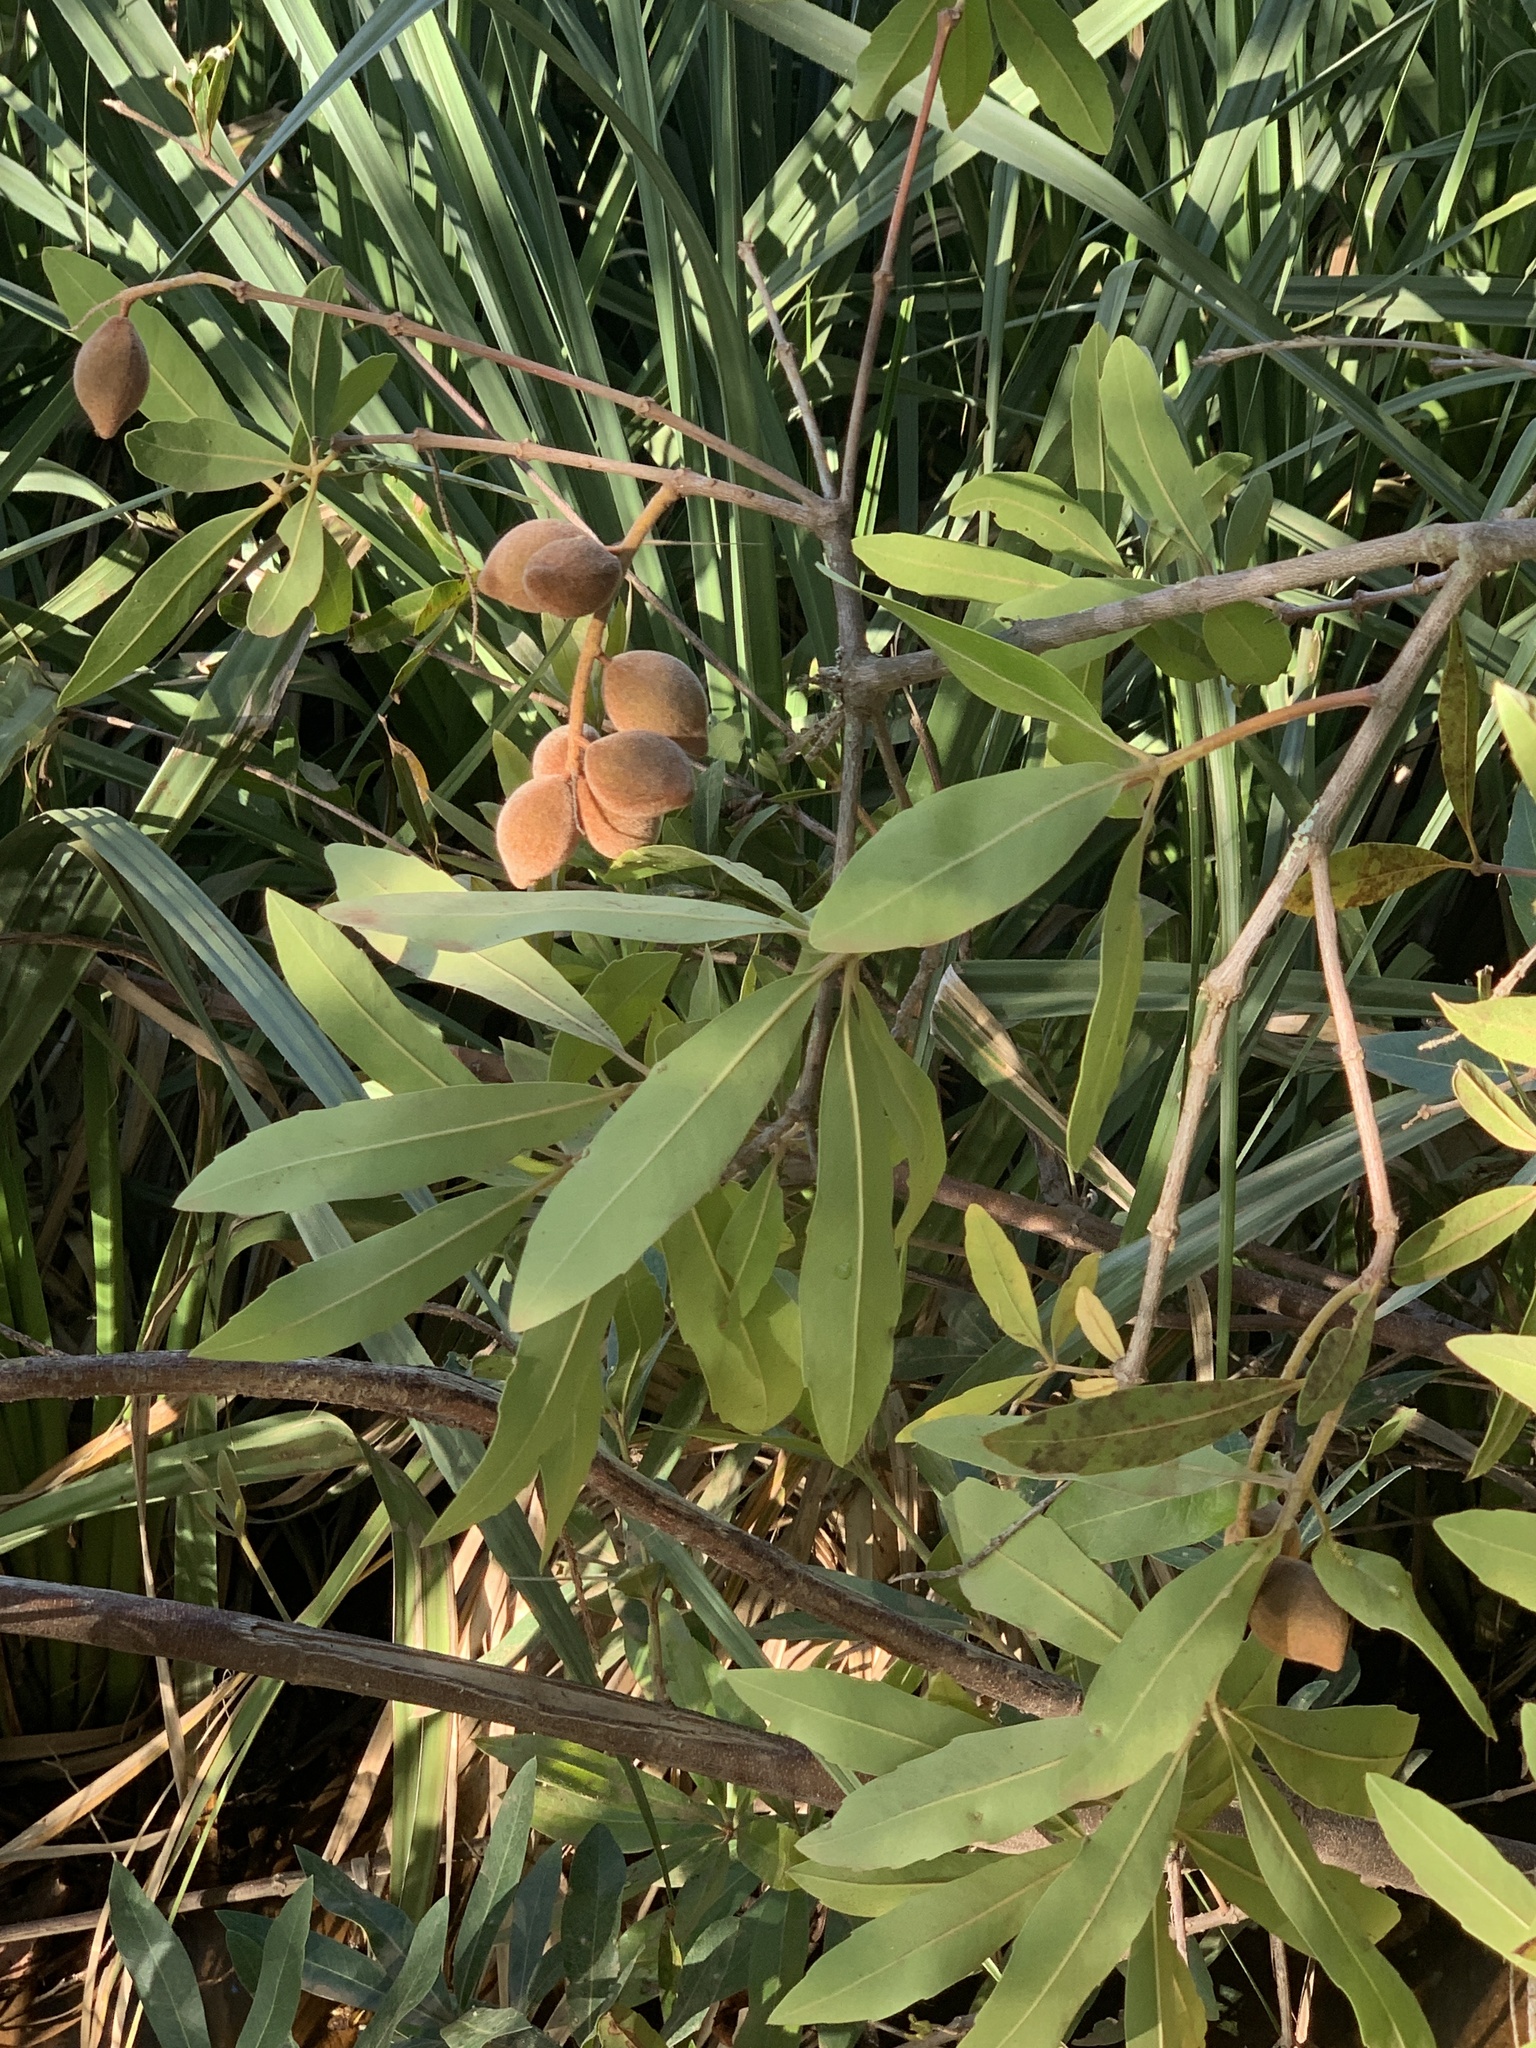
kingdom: Plantae
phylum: Tracheophyta
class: Magnoliopsida
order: Proteales
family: Proteaceae
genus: Brabejum
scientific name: Brabejum stellatifolium
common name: Wild almond
